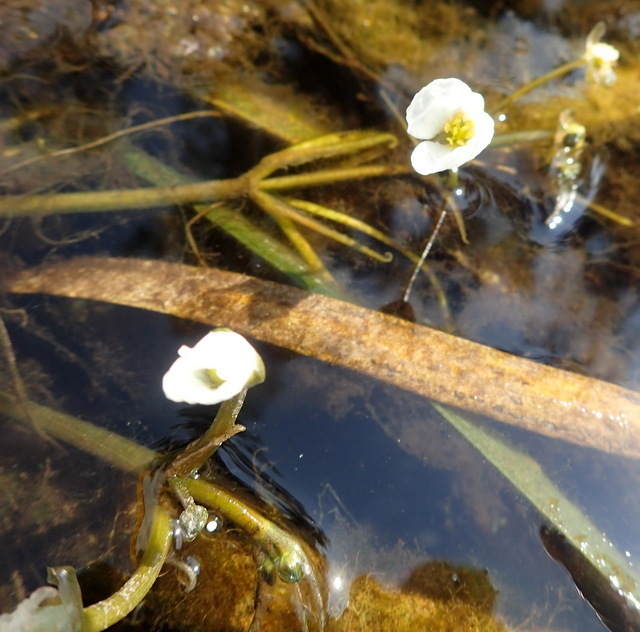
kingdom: Plantae
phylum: Tracheophyta
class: Liliopsida
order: Alismatales
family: Alismataceae
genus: Sagittaria
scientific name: Sagittaria kurziana
